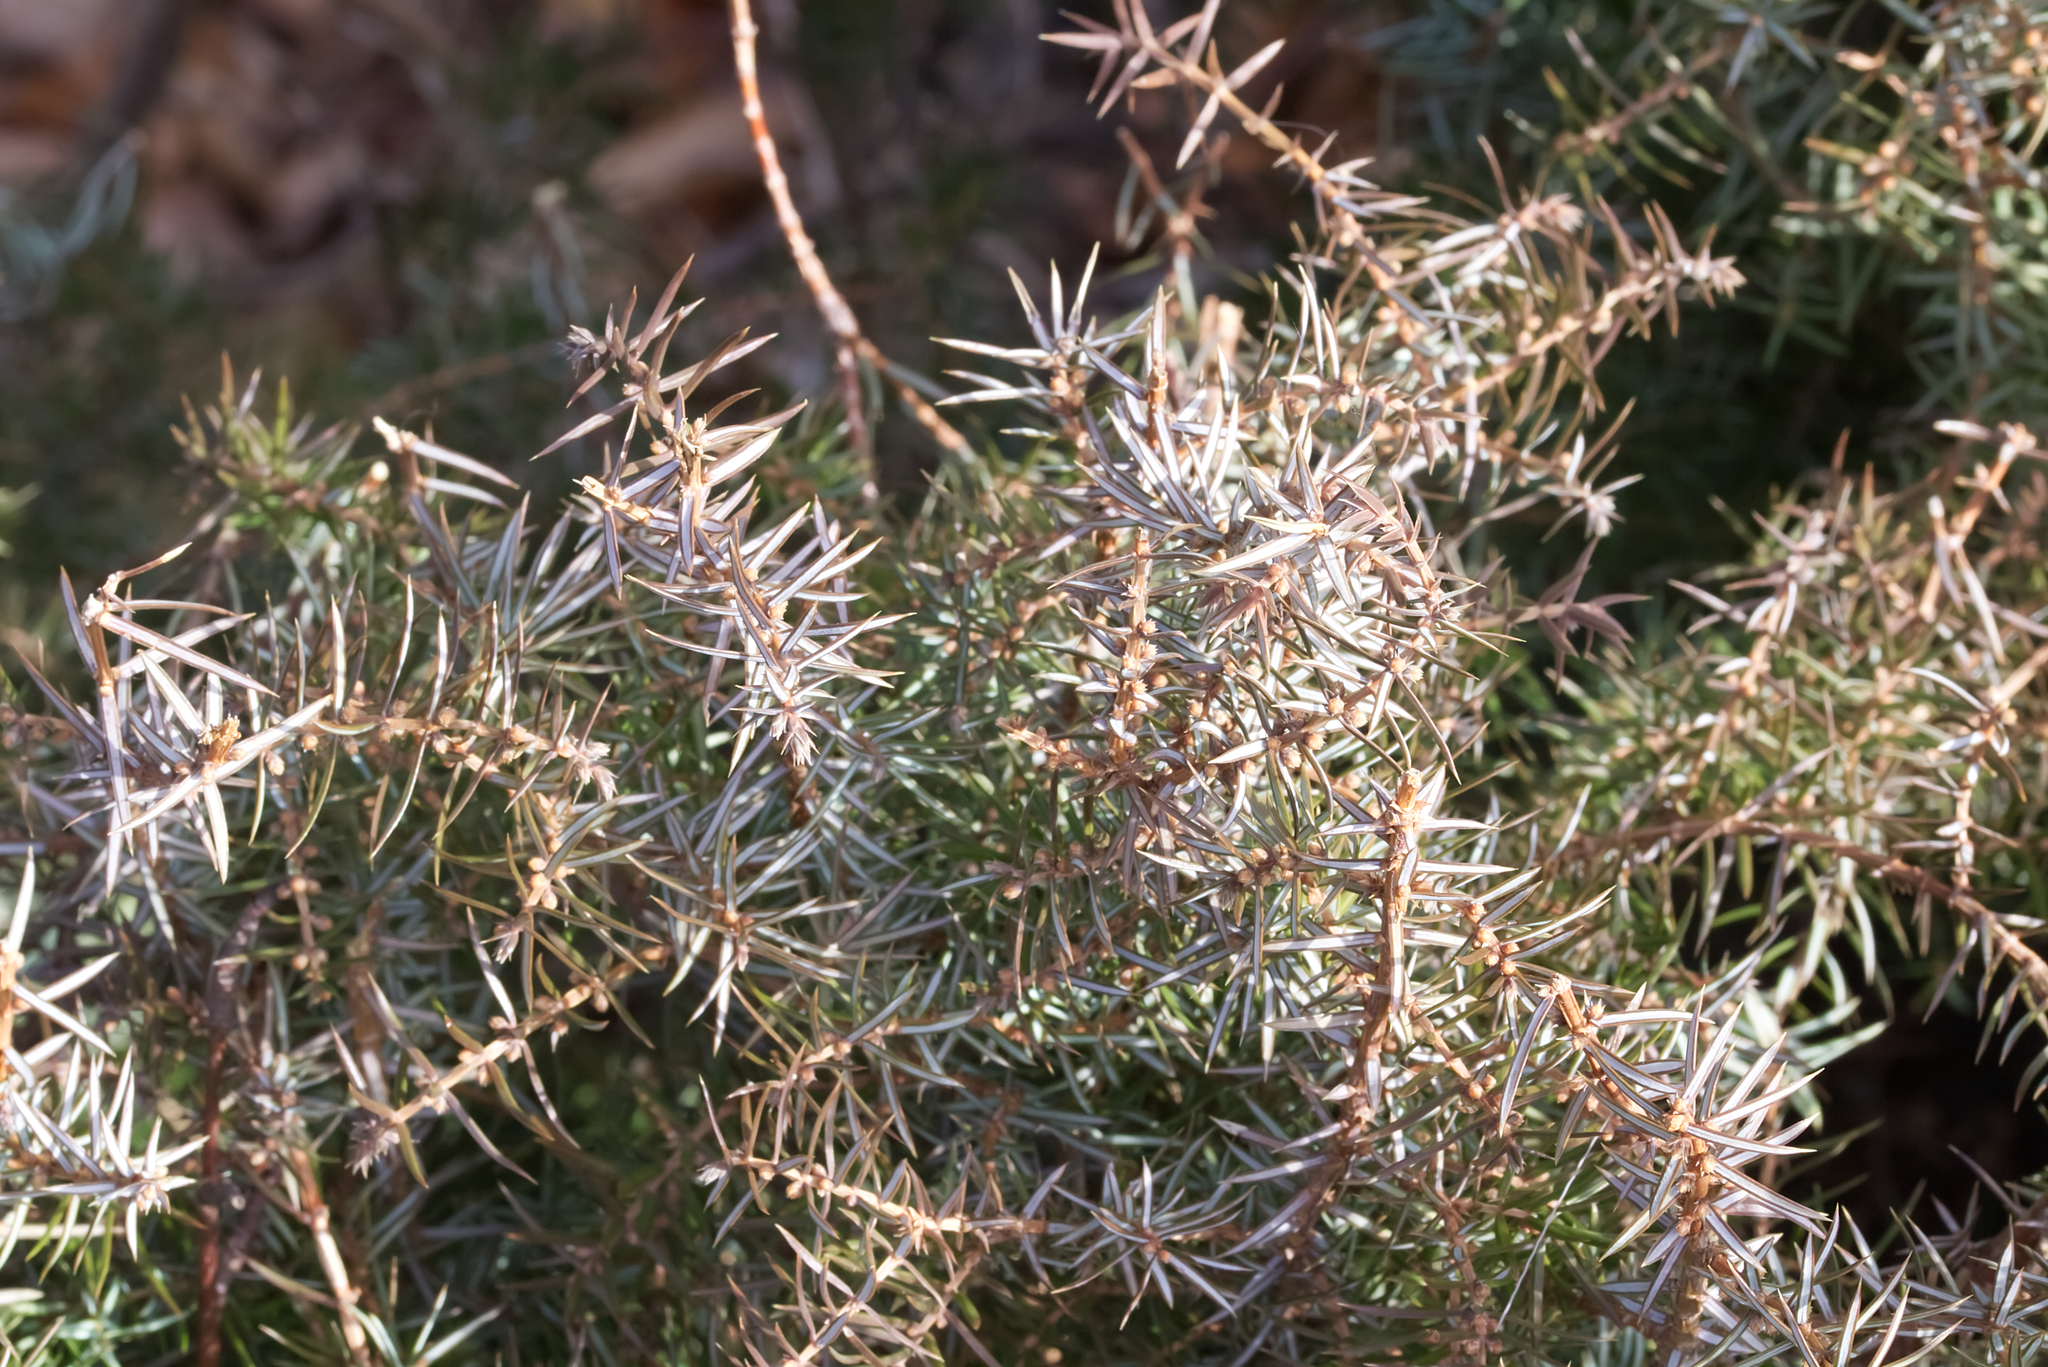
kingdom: Plantae
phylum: Tracheophyta
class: Pinopsida
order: Pinales
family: Cupressaceae
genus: Juniperus
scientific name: Juniperus communis
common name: Common juniper
